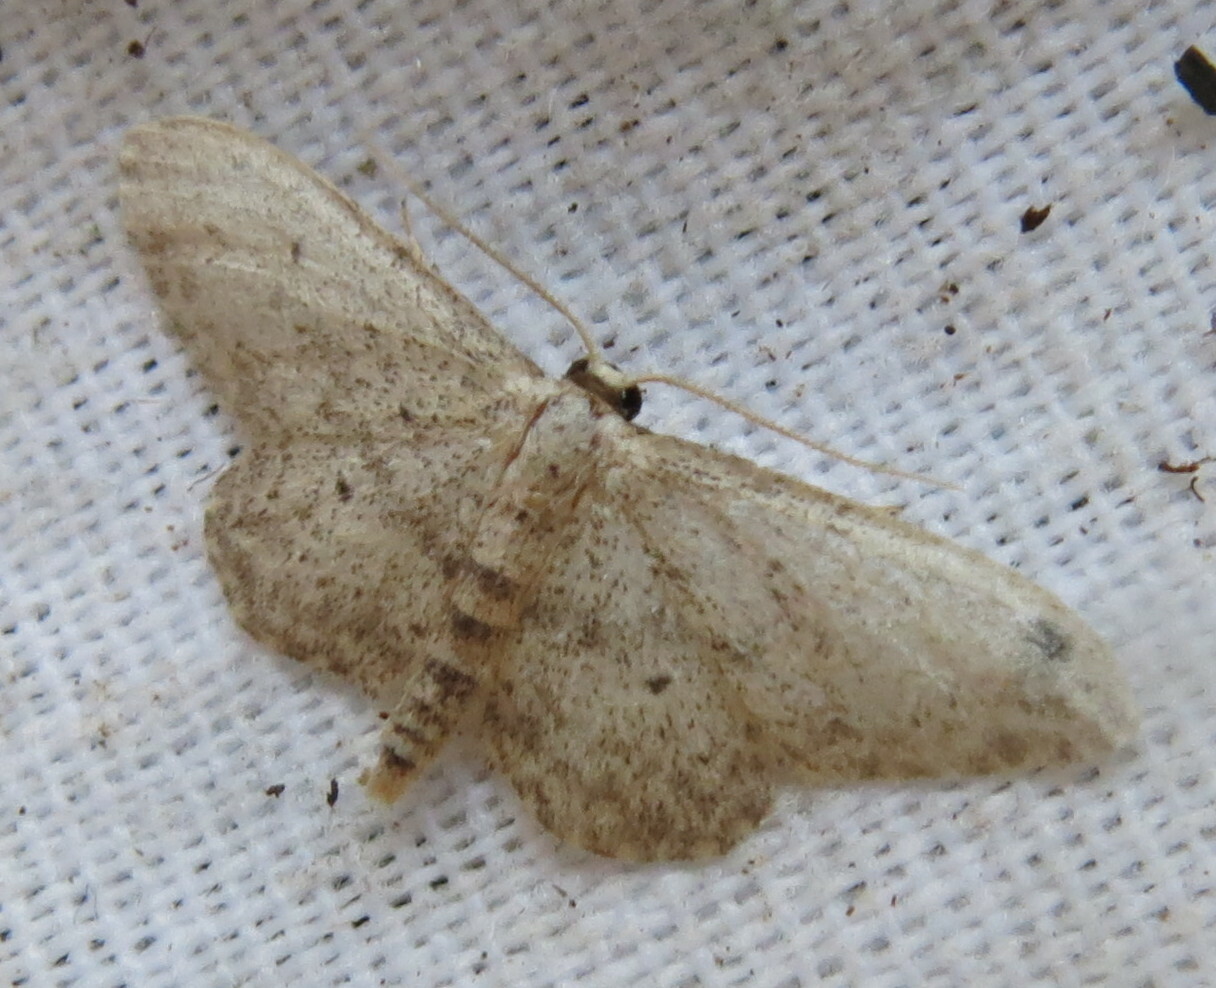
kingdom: Animalia
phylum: Arthropoda
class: Insecta
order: Lepidoptera
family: Geometridae
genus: Idaea
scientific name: Idaea seriata
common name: Small dusty wave
